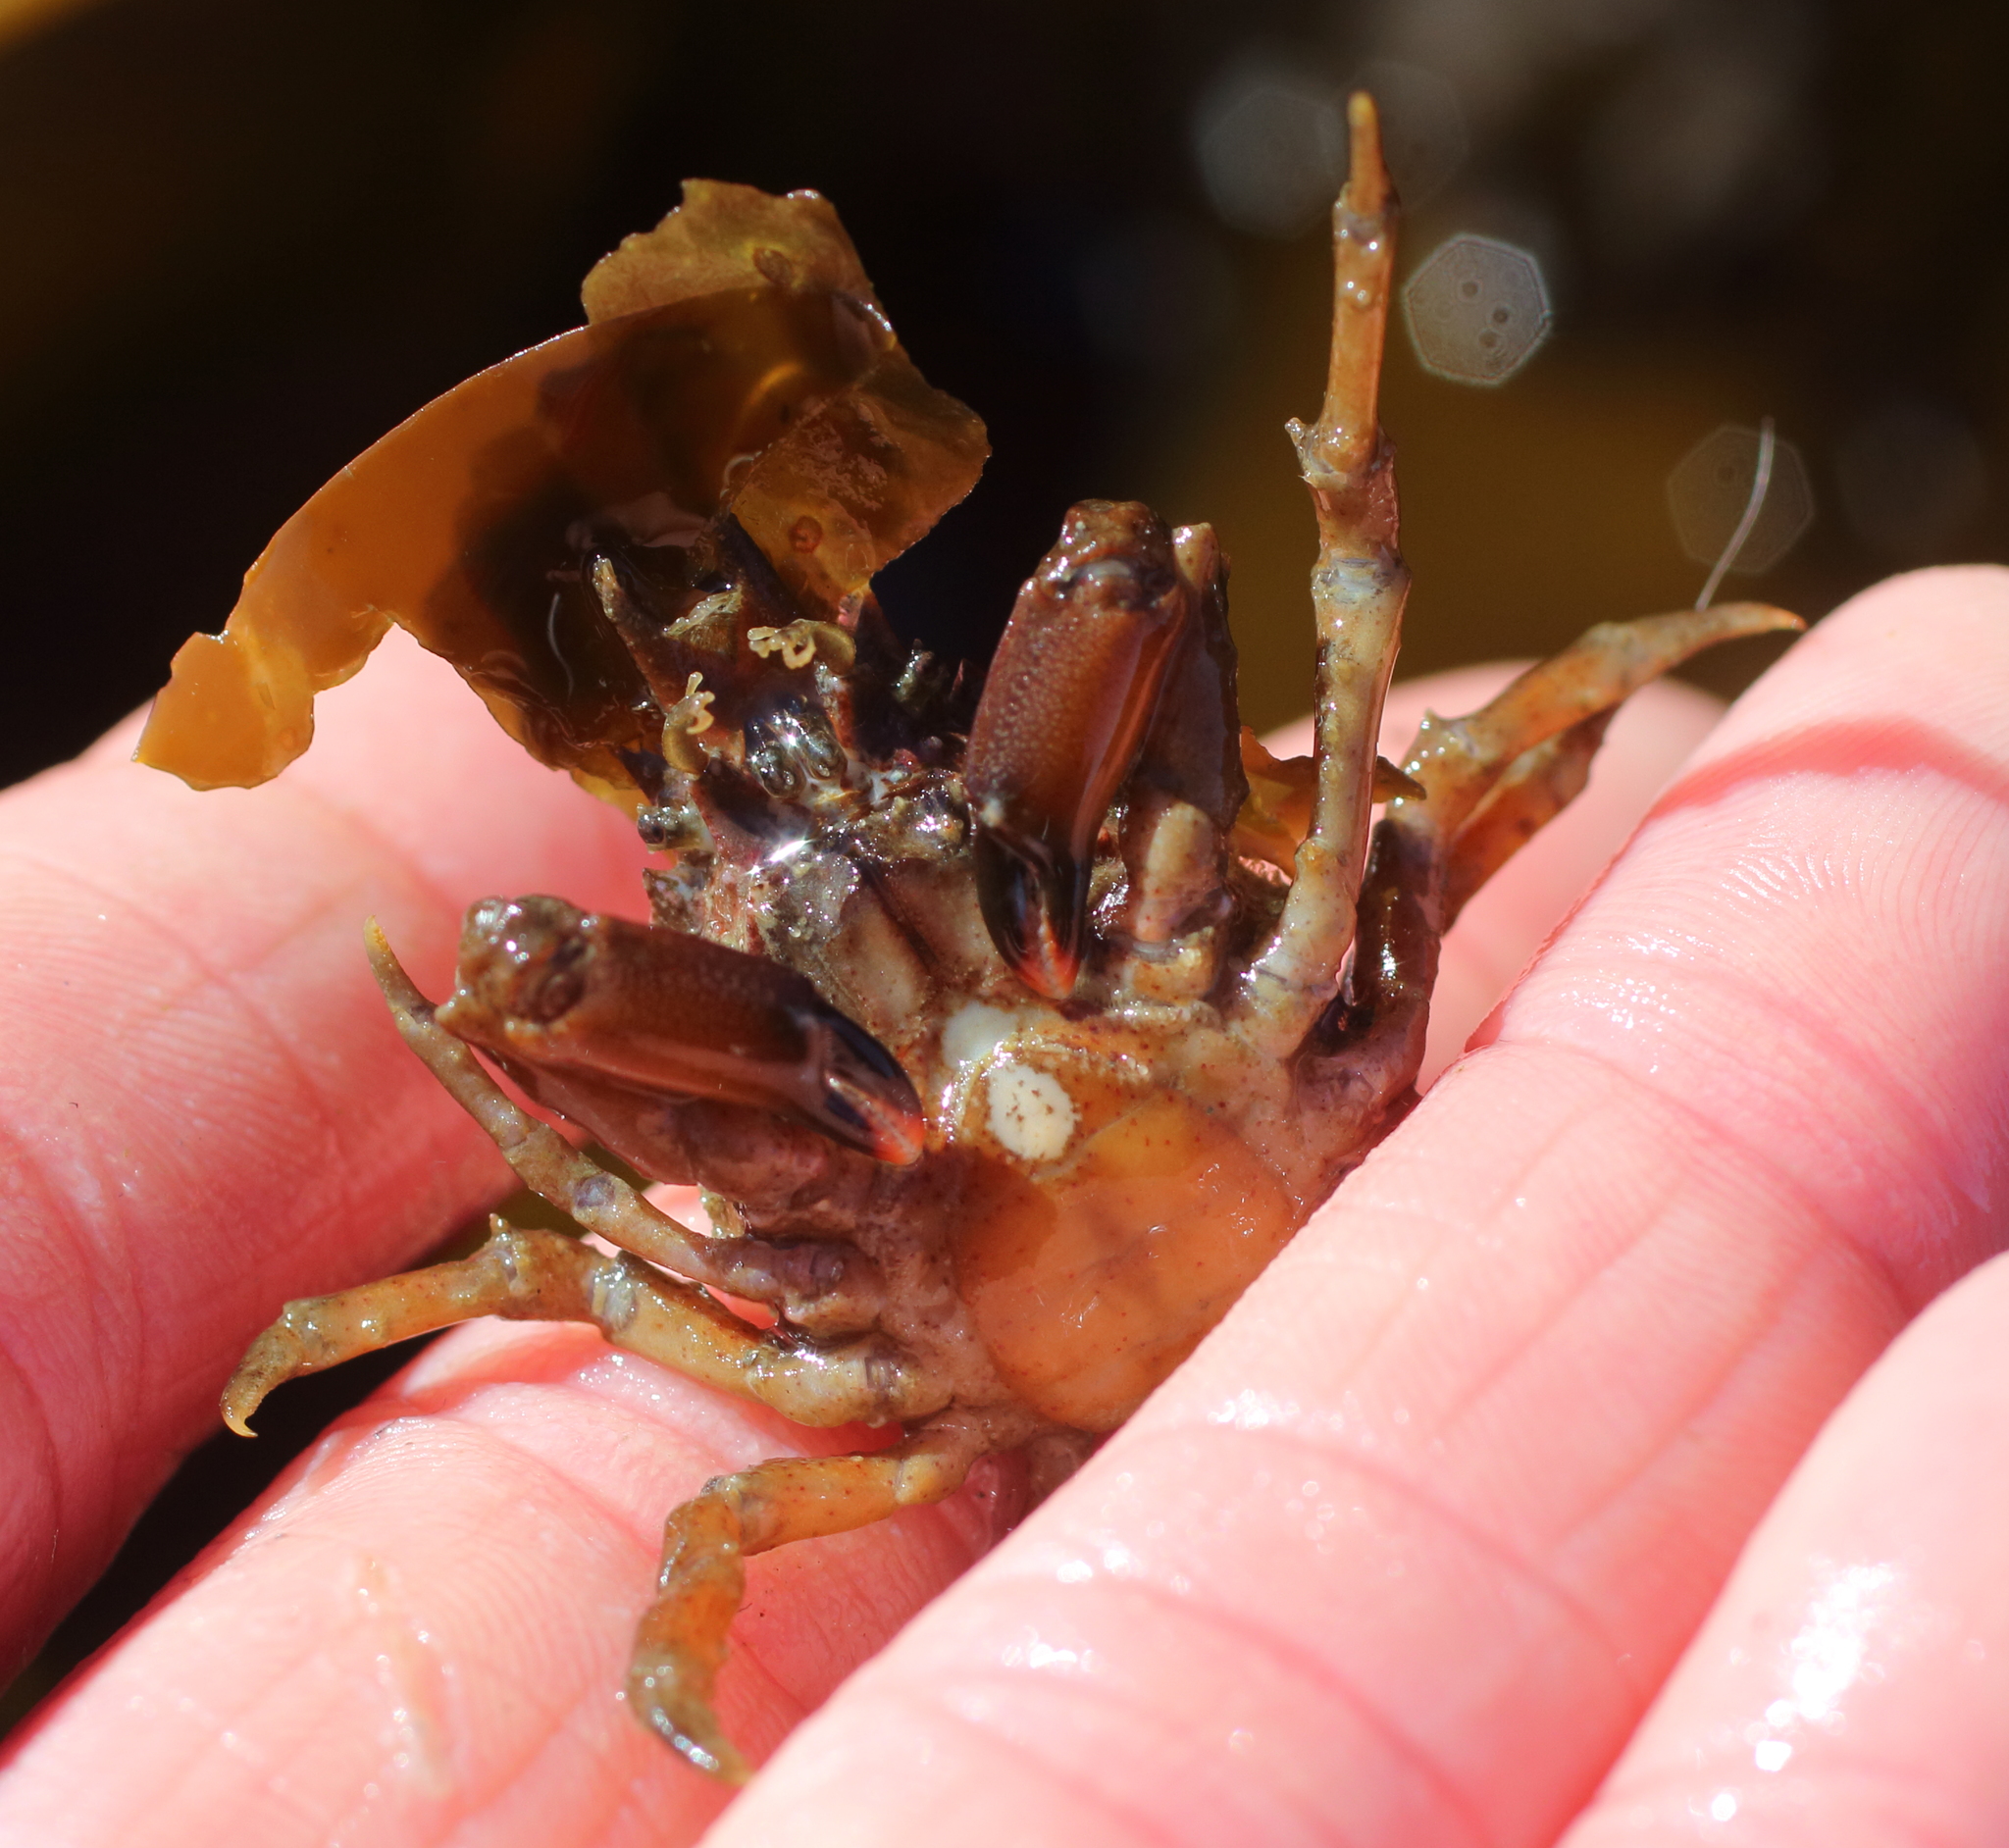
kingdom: Animalia
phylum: Arthropoda
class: Malacostraca
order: Decapoda
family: Epialtidae
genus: Pugettia
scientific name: Pugettia gracilis
